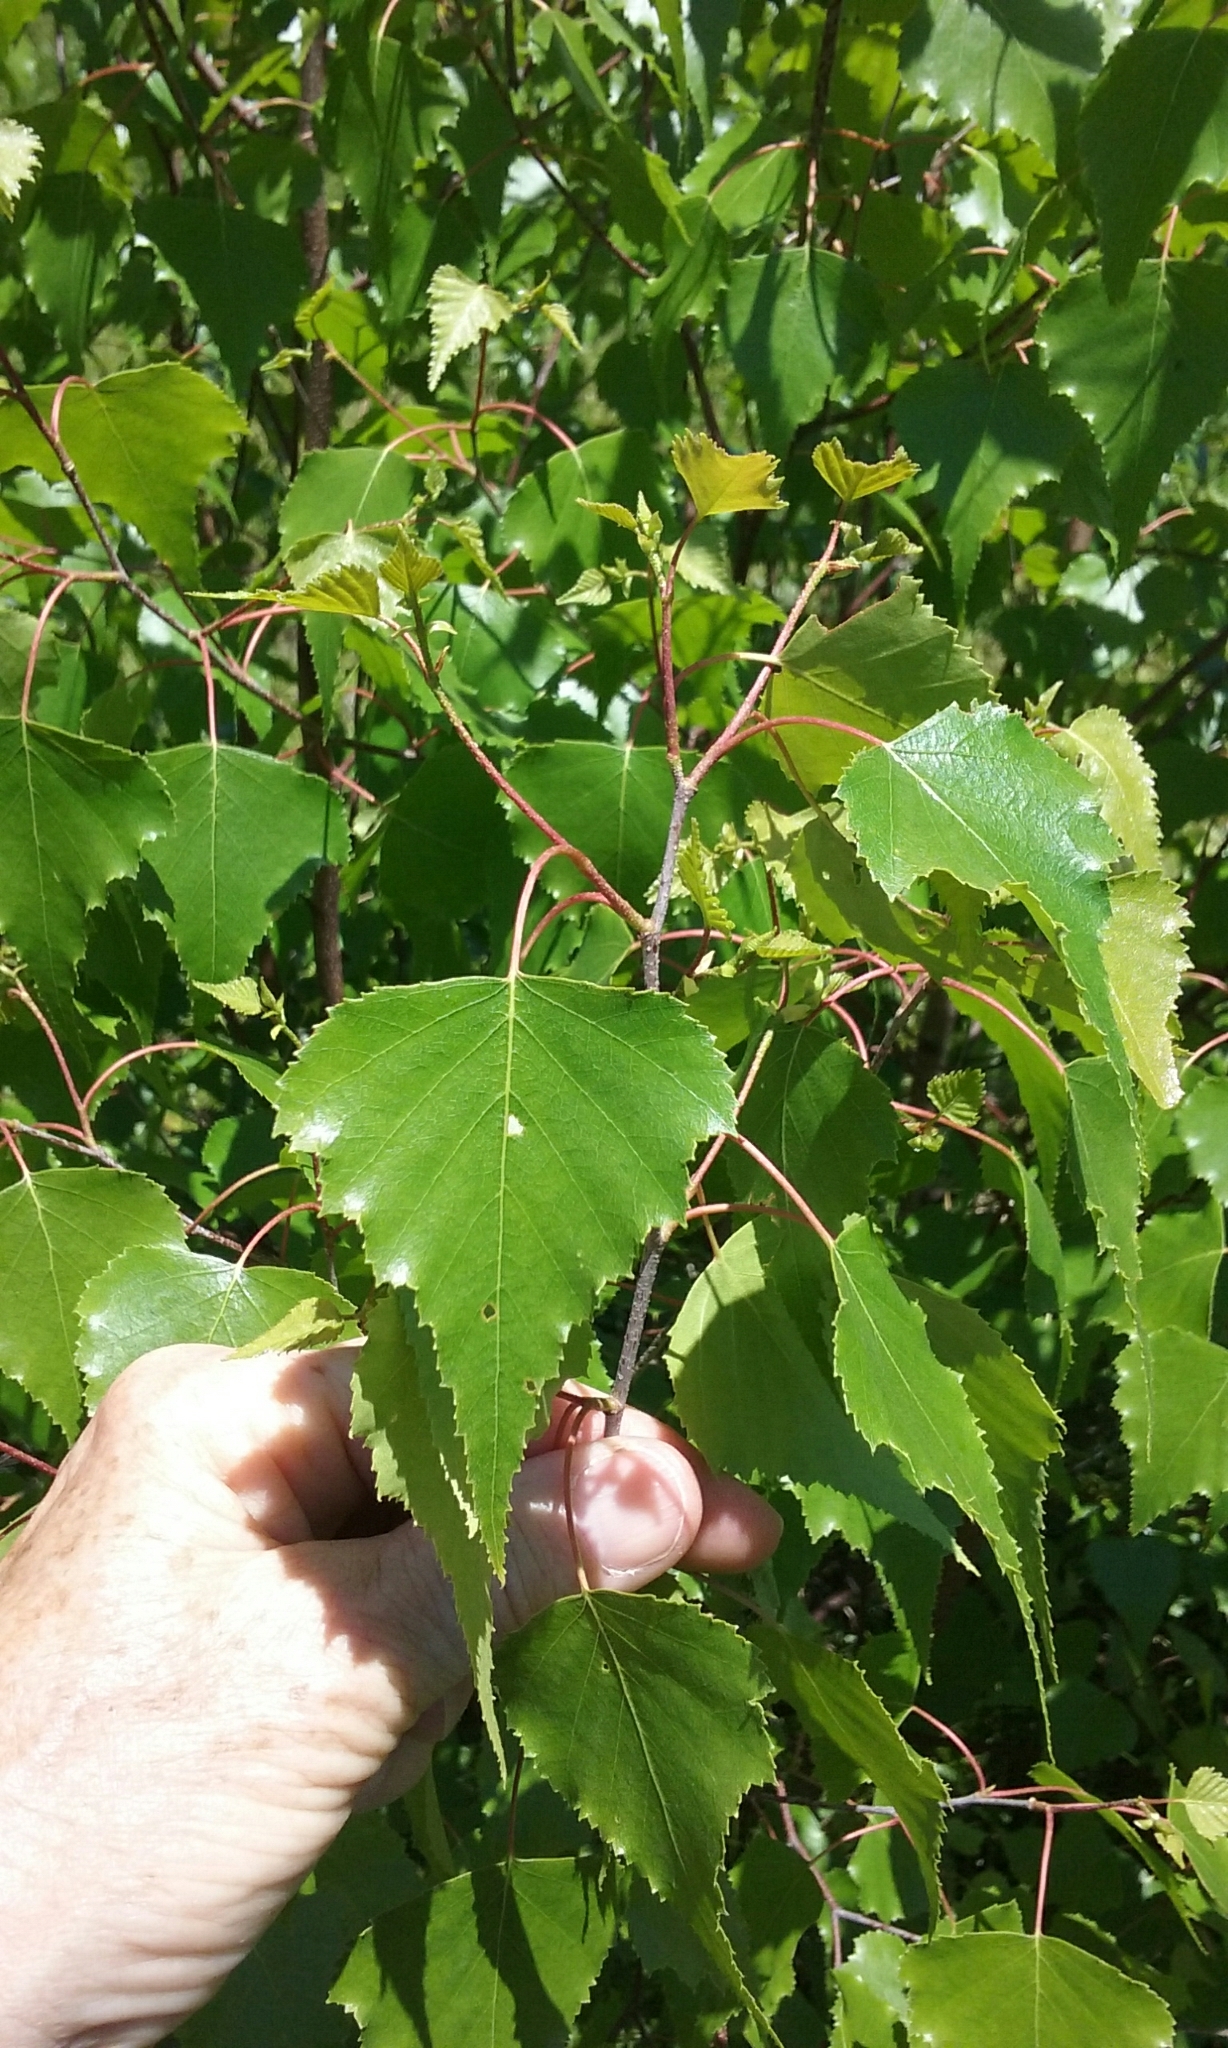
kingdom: Plantae
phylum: Tracheophyta
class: Magnoliopsida
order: Fagales
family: Betulaceae
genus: Betula
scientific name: Betula populifolia
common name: Fire birch
